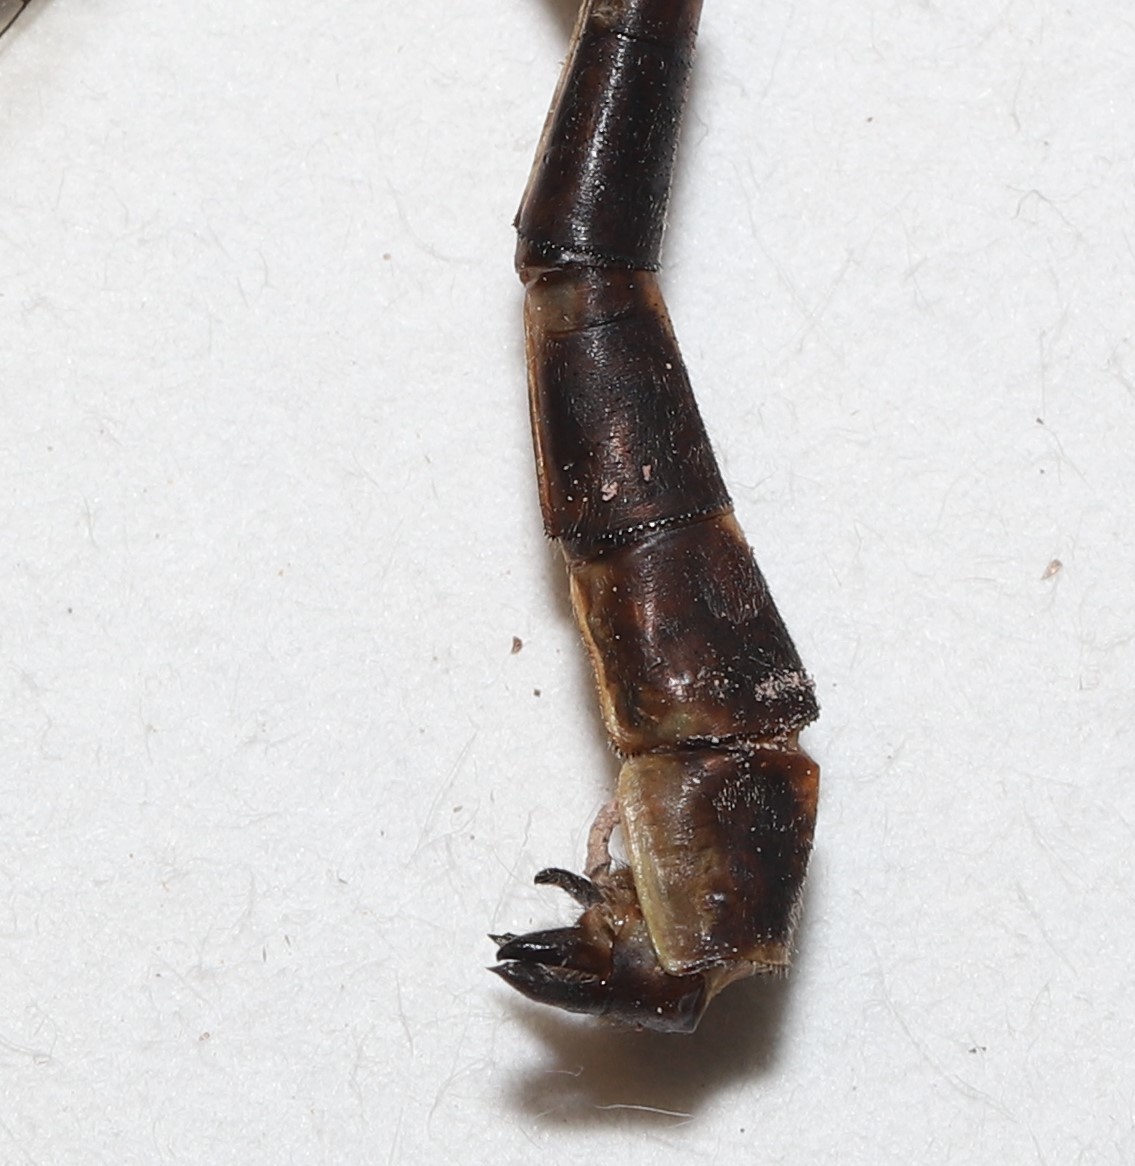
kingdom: Animalia
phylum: Arthropoda
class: Insecta
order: Odonata
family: Gomphidae
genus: Phanogomphus
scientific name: Phanogomphus lividus
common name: Ashy clubtail
